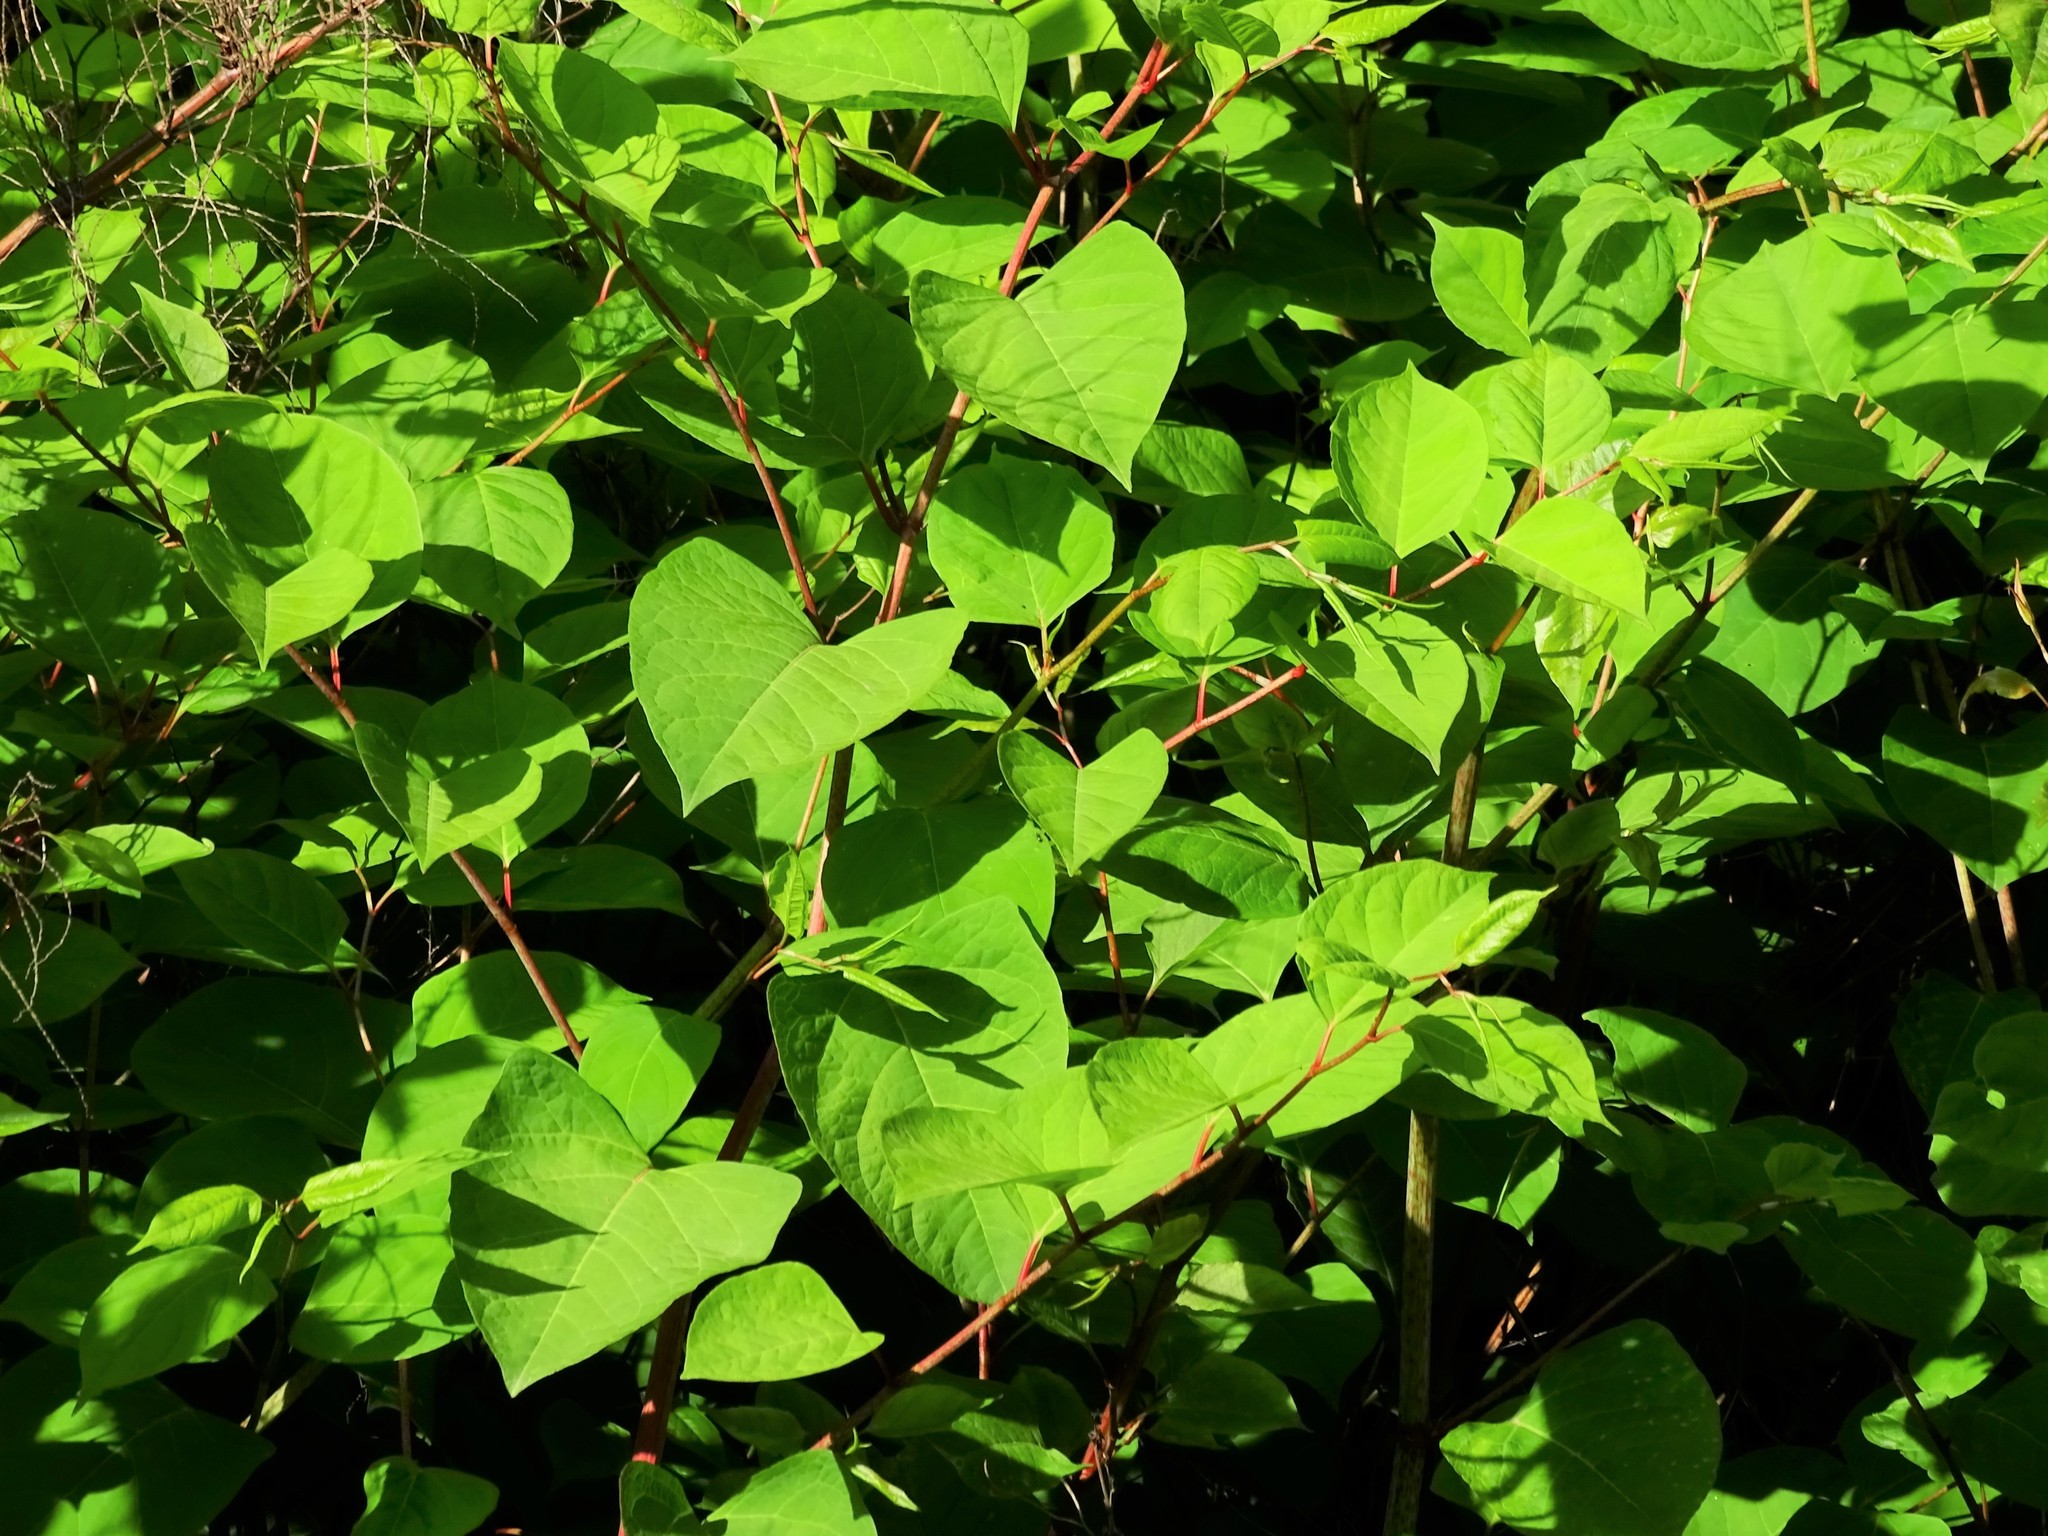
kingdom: Plantae
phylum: Tracheophyta
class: Magnoliopsida
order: Caryophyllales
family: Polygonaceae
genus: Reynoutria
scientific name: Reynoutria japonica
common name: Japanese knotweed
